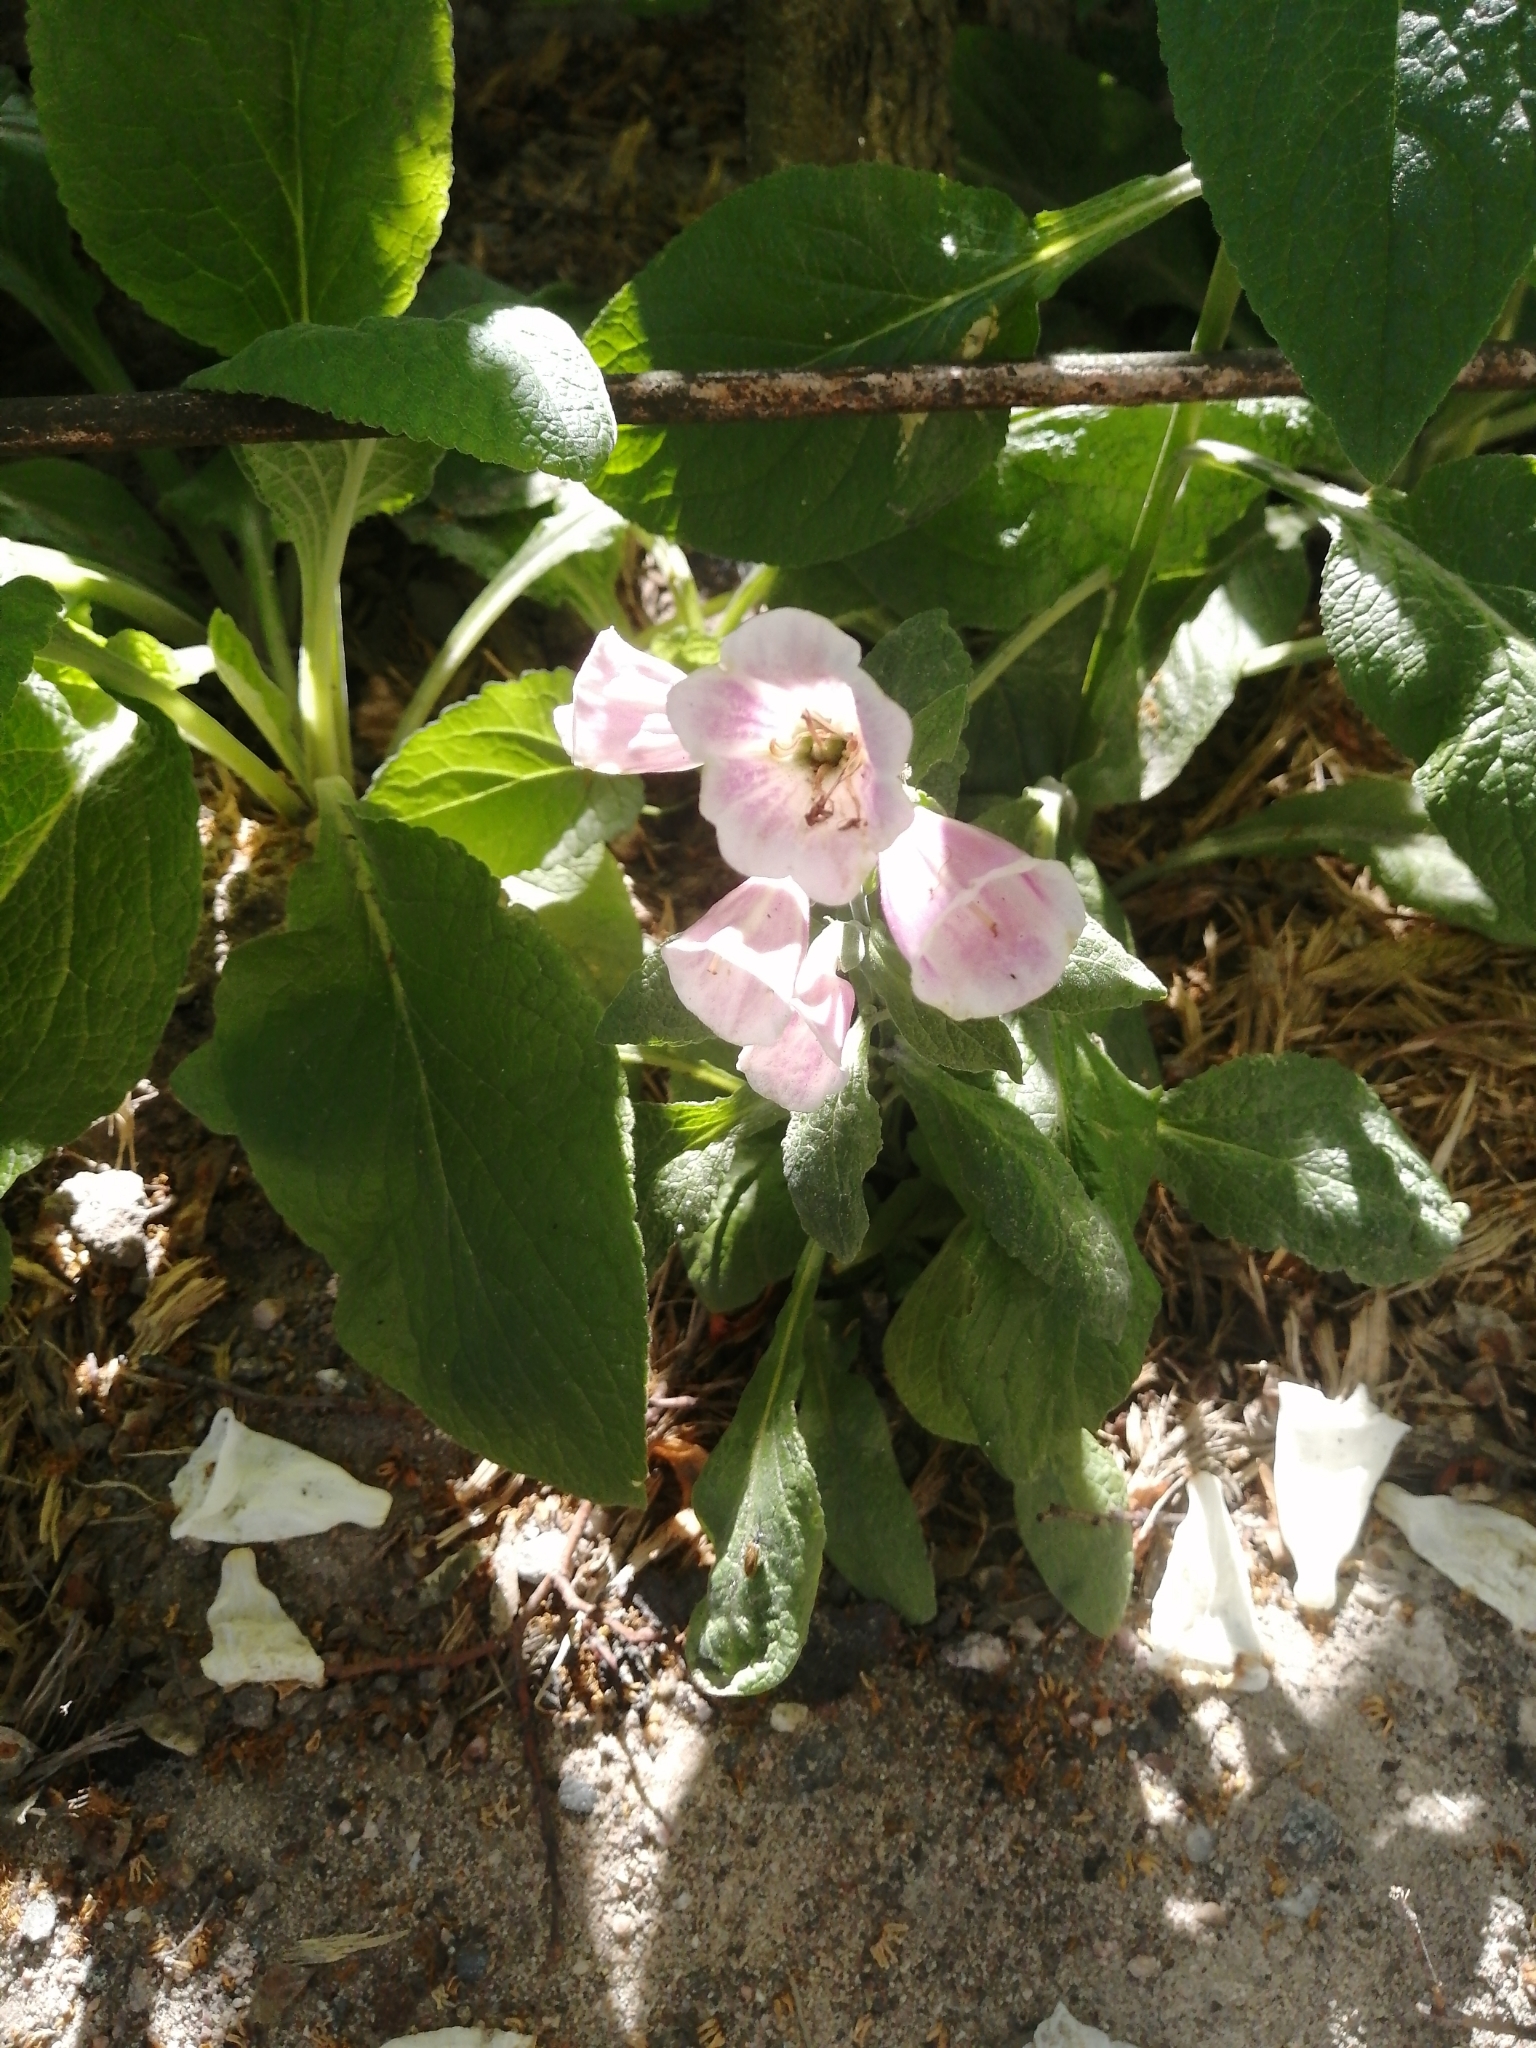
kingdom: Plantae
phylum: Tracheophyta
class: Magnoliopsida
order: Lamiales
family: Plantaginaceae
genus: Digitalis
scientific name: Digitalis purpurea
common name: Foxglove
